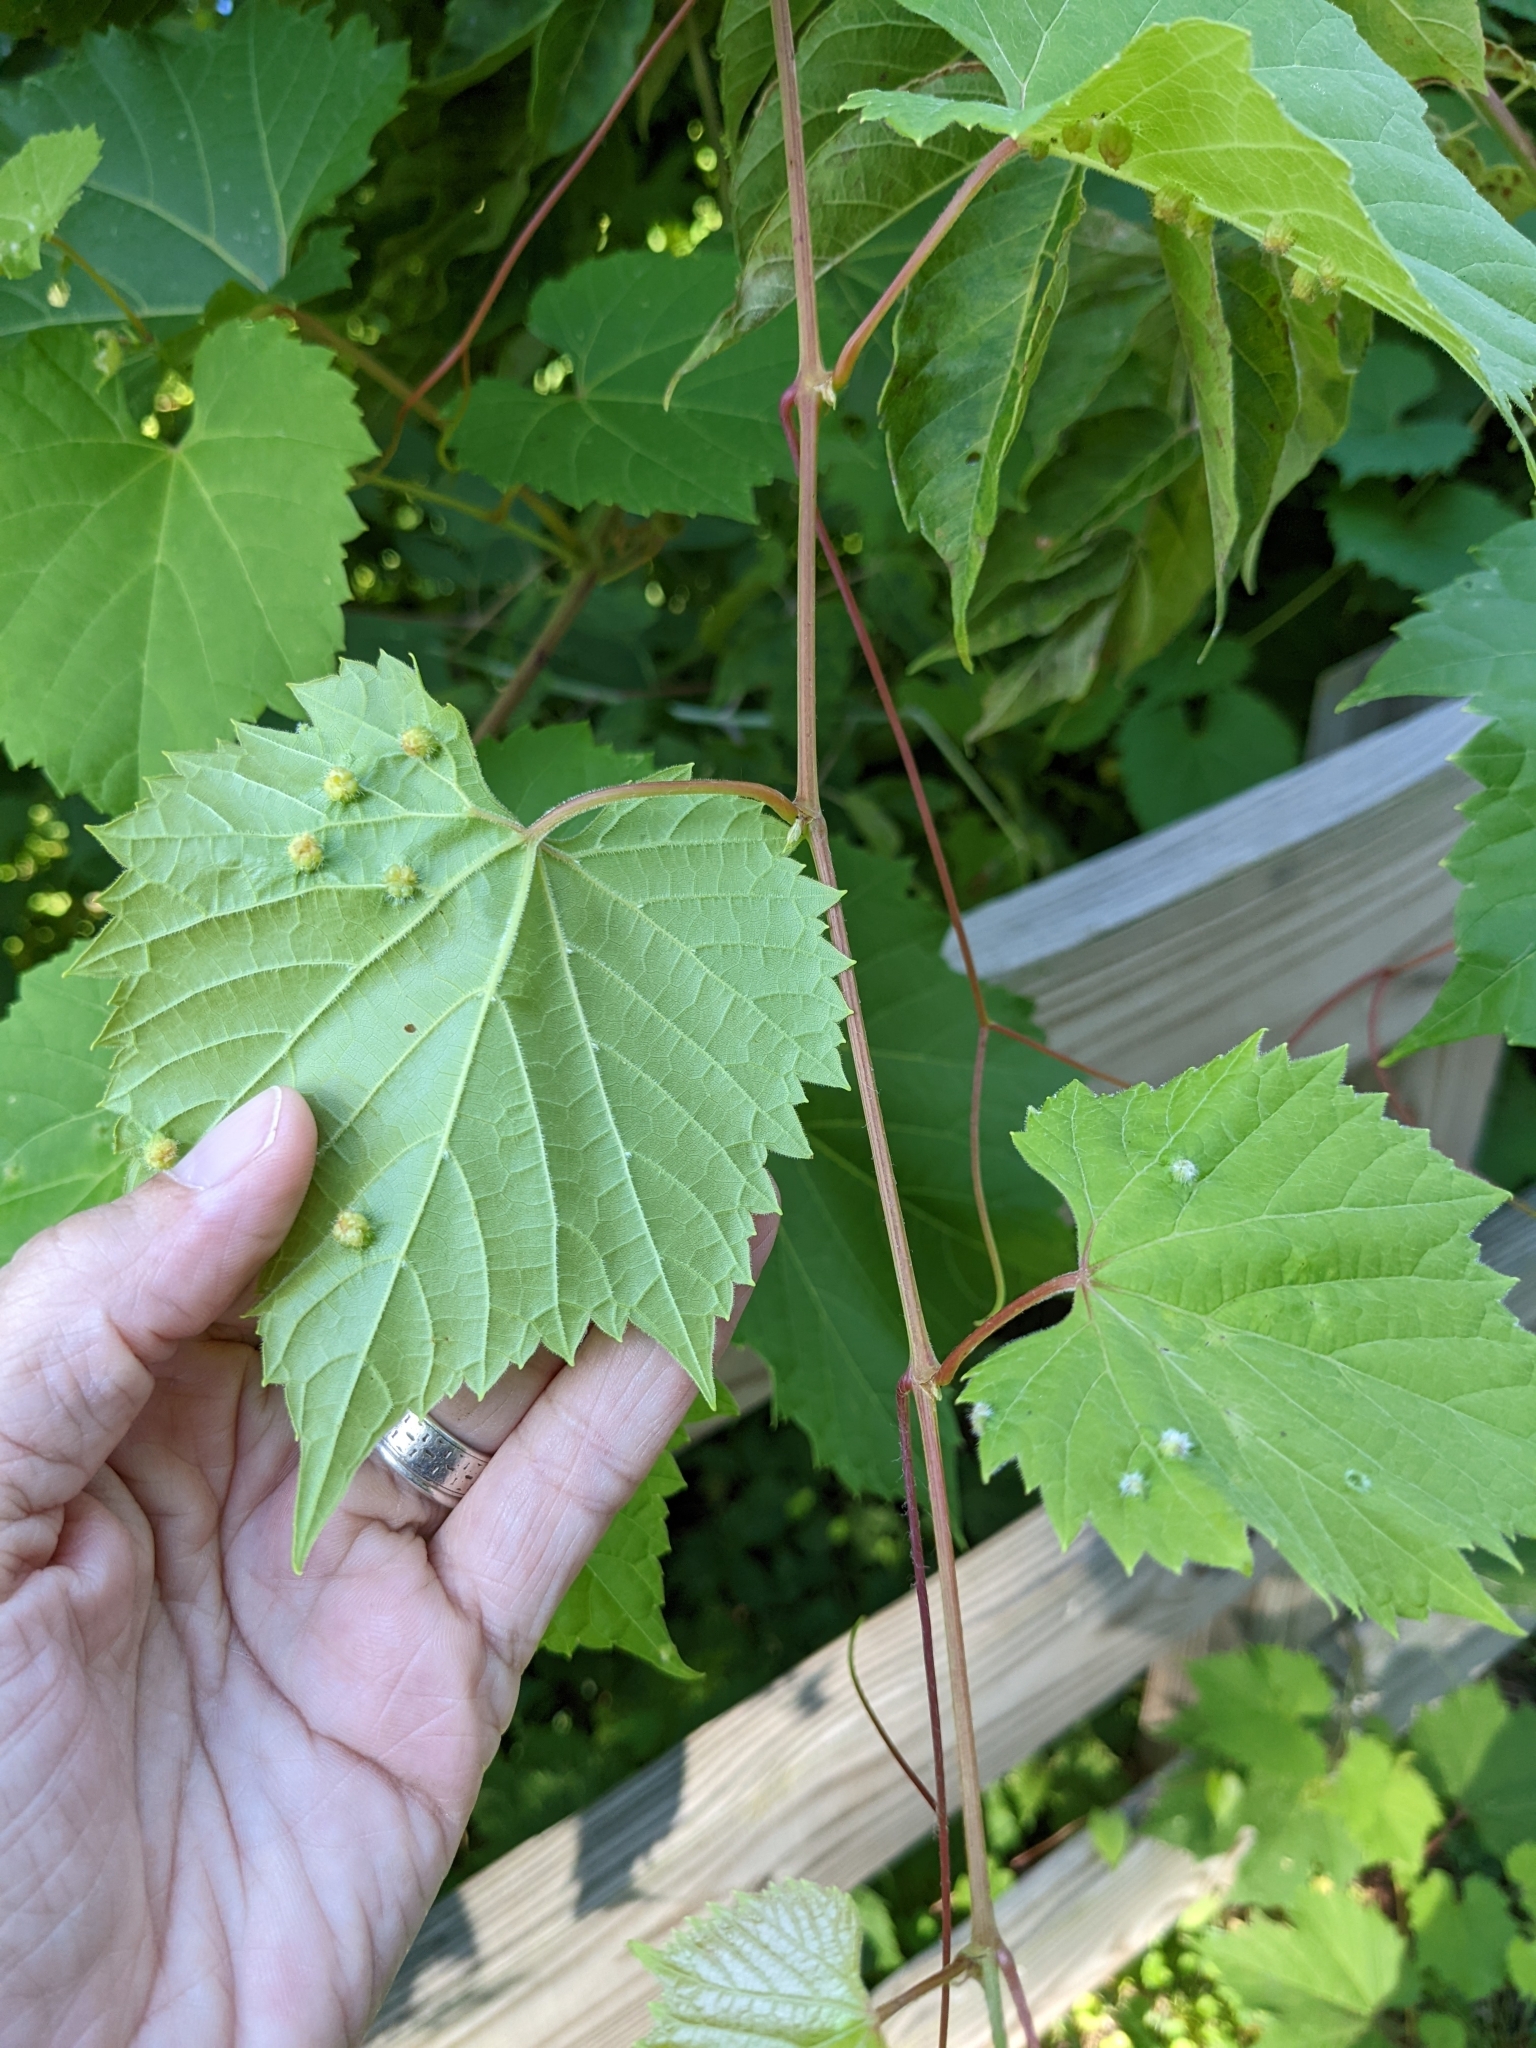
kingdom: Animalia
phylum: Arthropoda
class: Insecta
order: Hemiptera
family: Phylloxeridae
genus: Daktulosphaira
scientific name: Daktulosphaira vitifoliae
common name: Grape phylloxera
